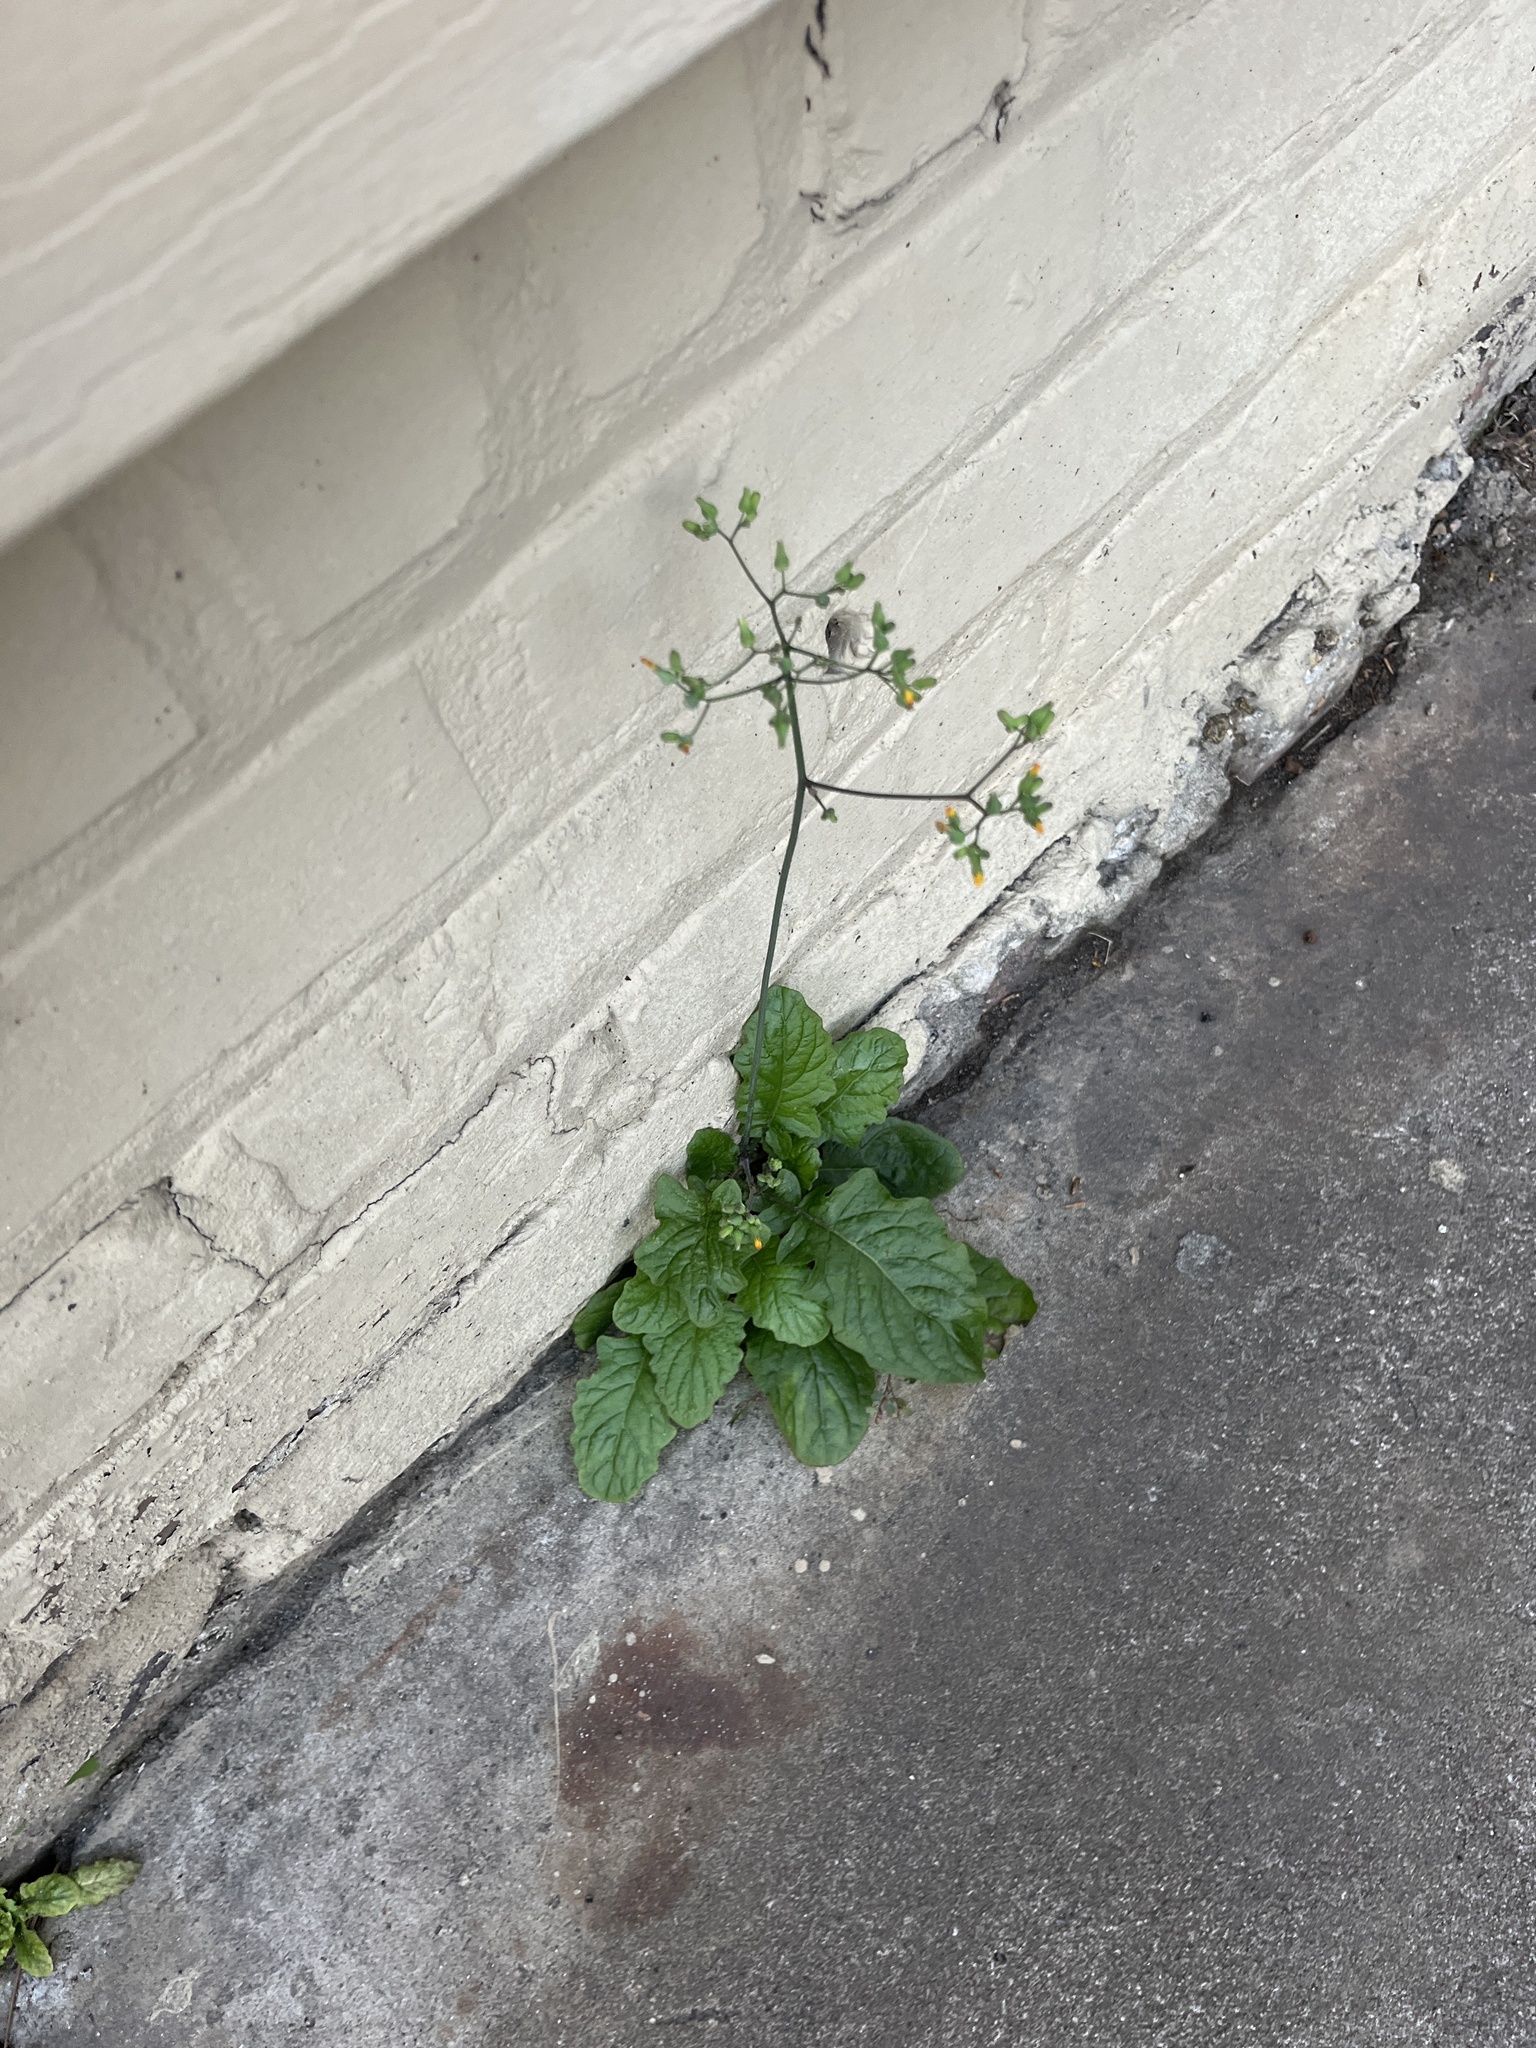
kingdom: Plantae
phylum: Tracheophyta
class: Magnoliopsida
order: Asterales
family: Asteraceae
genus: Youngia
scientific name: Youngia japonica
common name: Oriental false hawksbeard
